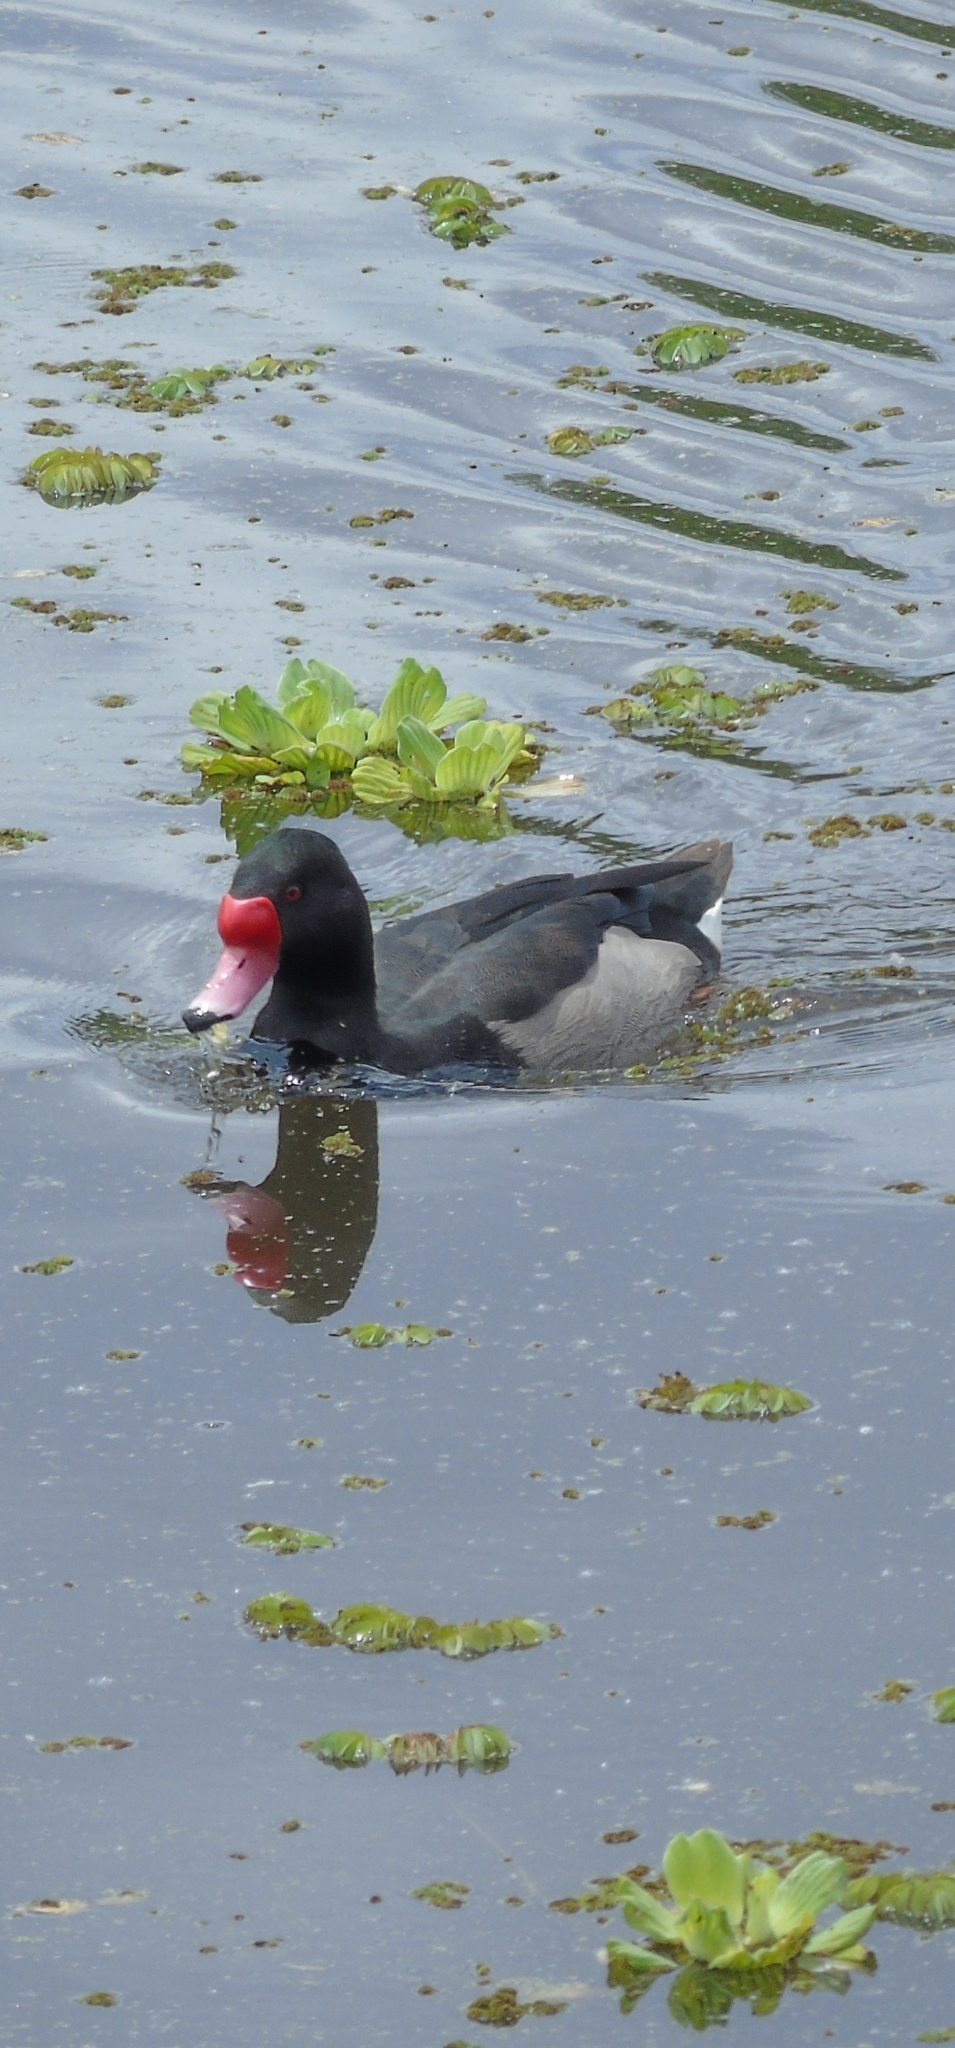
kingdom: Animalia
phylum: Chordata
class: Aves
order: Anseriformes
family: Anatidae
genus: Netta
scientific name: Netta peposaca
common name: Rosy-billed pochard
